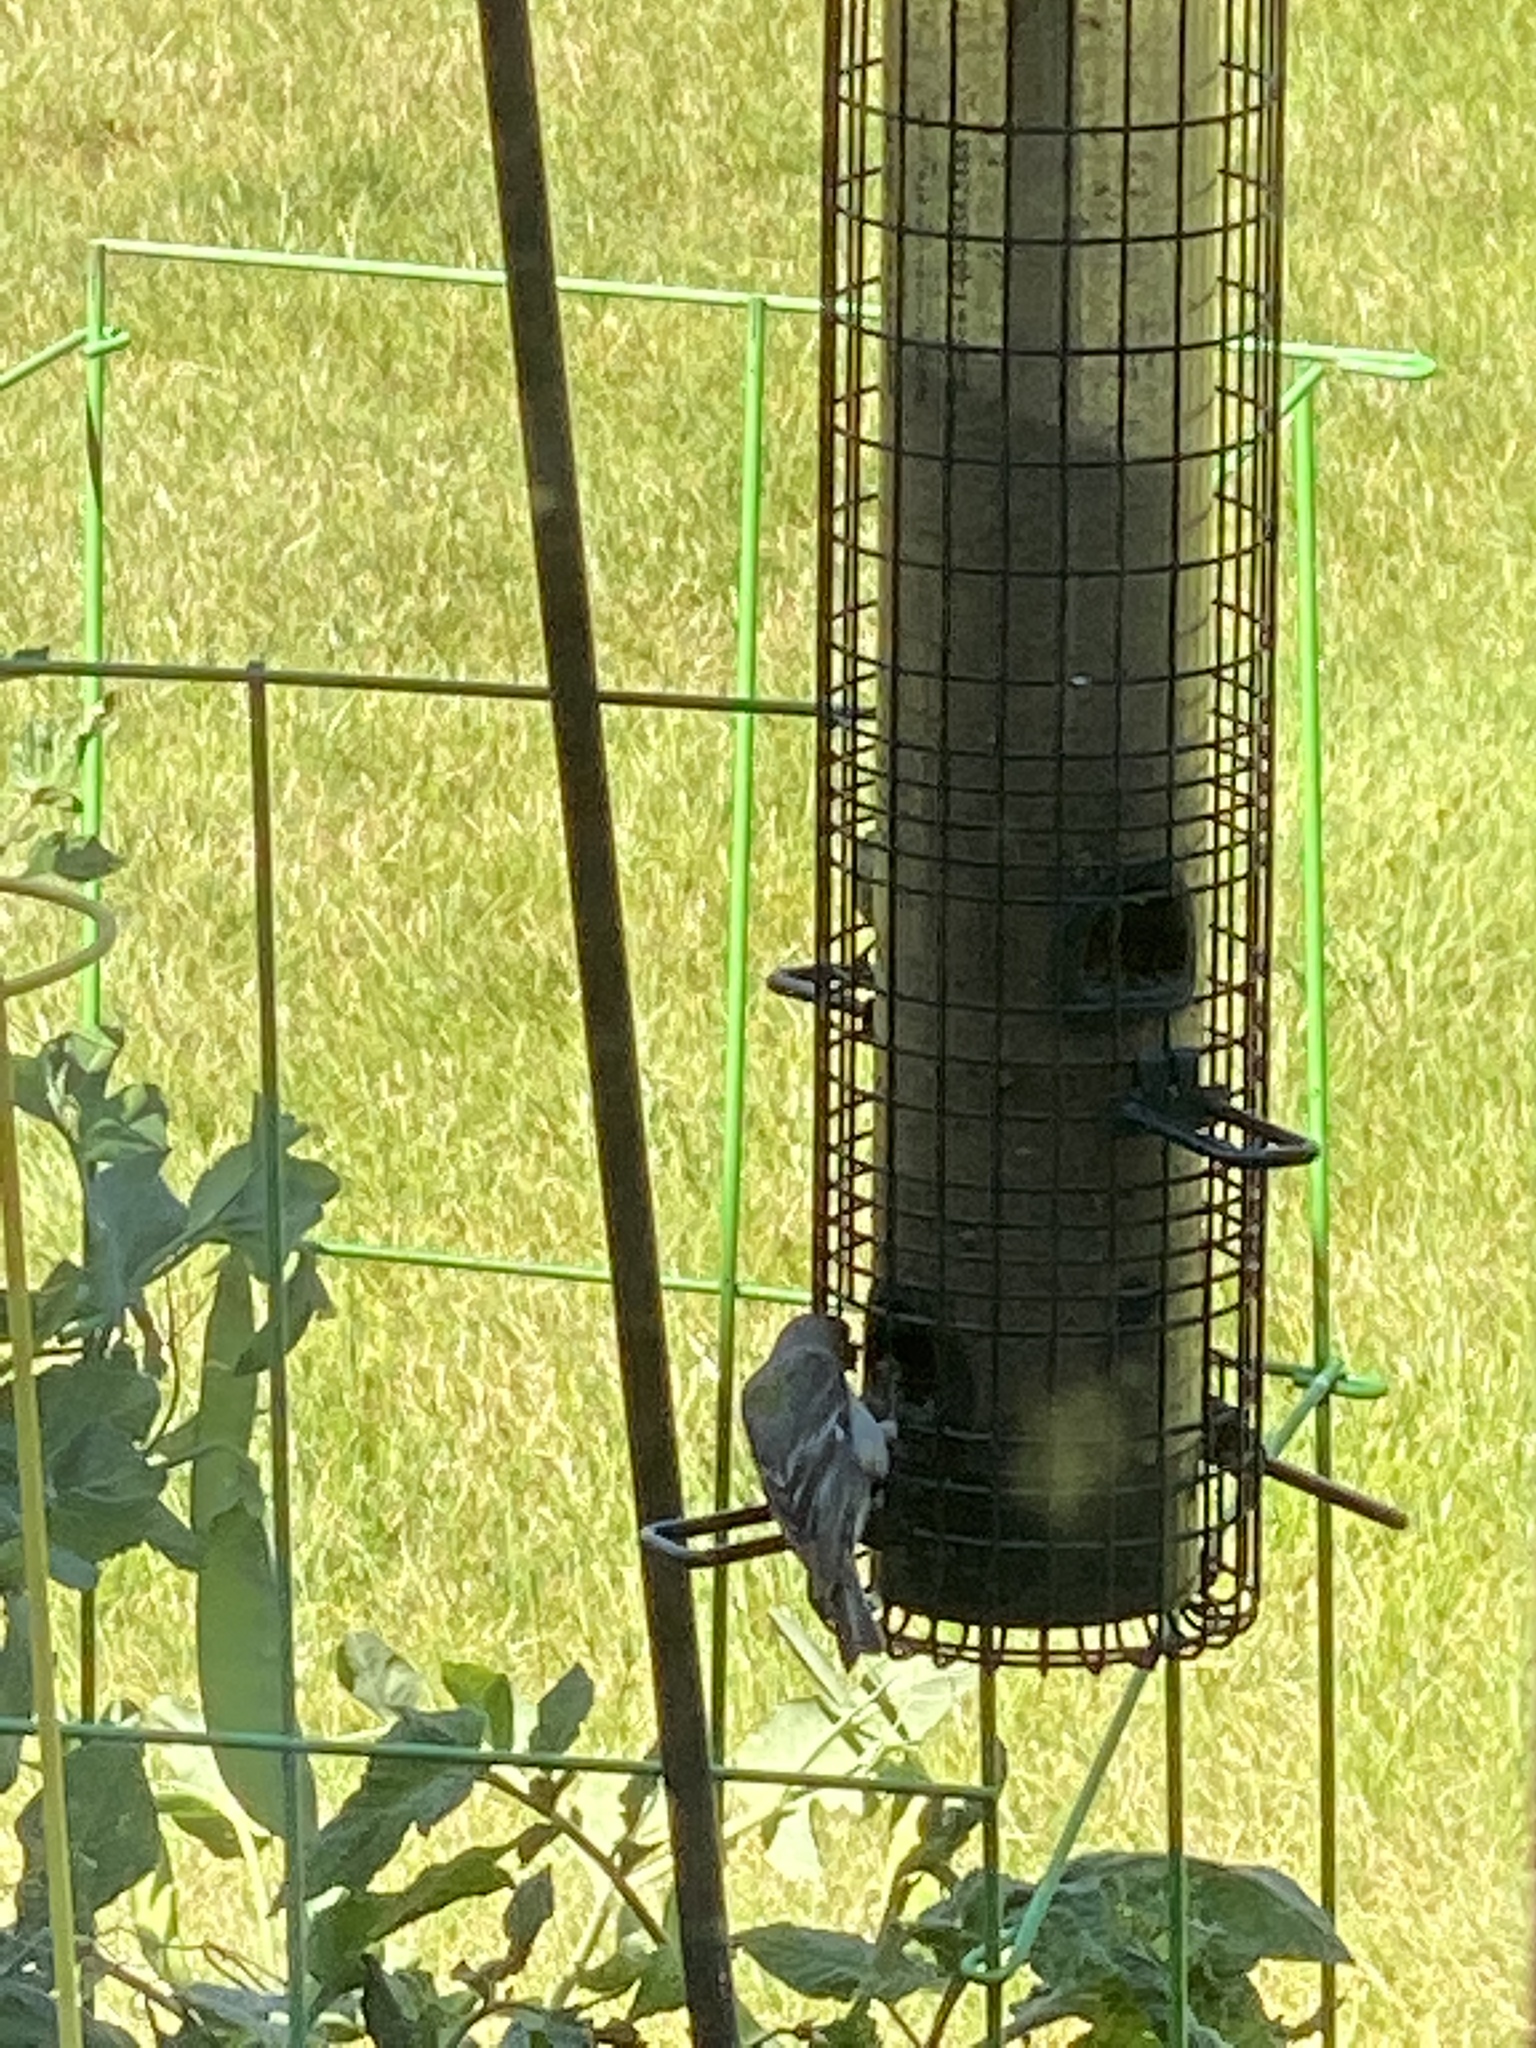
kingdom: Animalia
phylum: Chordata
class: Aves
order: Passeriformes
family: Fringillidae
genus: Spinus
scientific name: Spinus psaltria
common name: Lesser goldfinch
